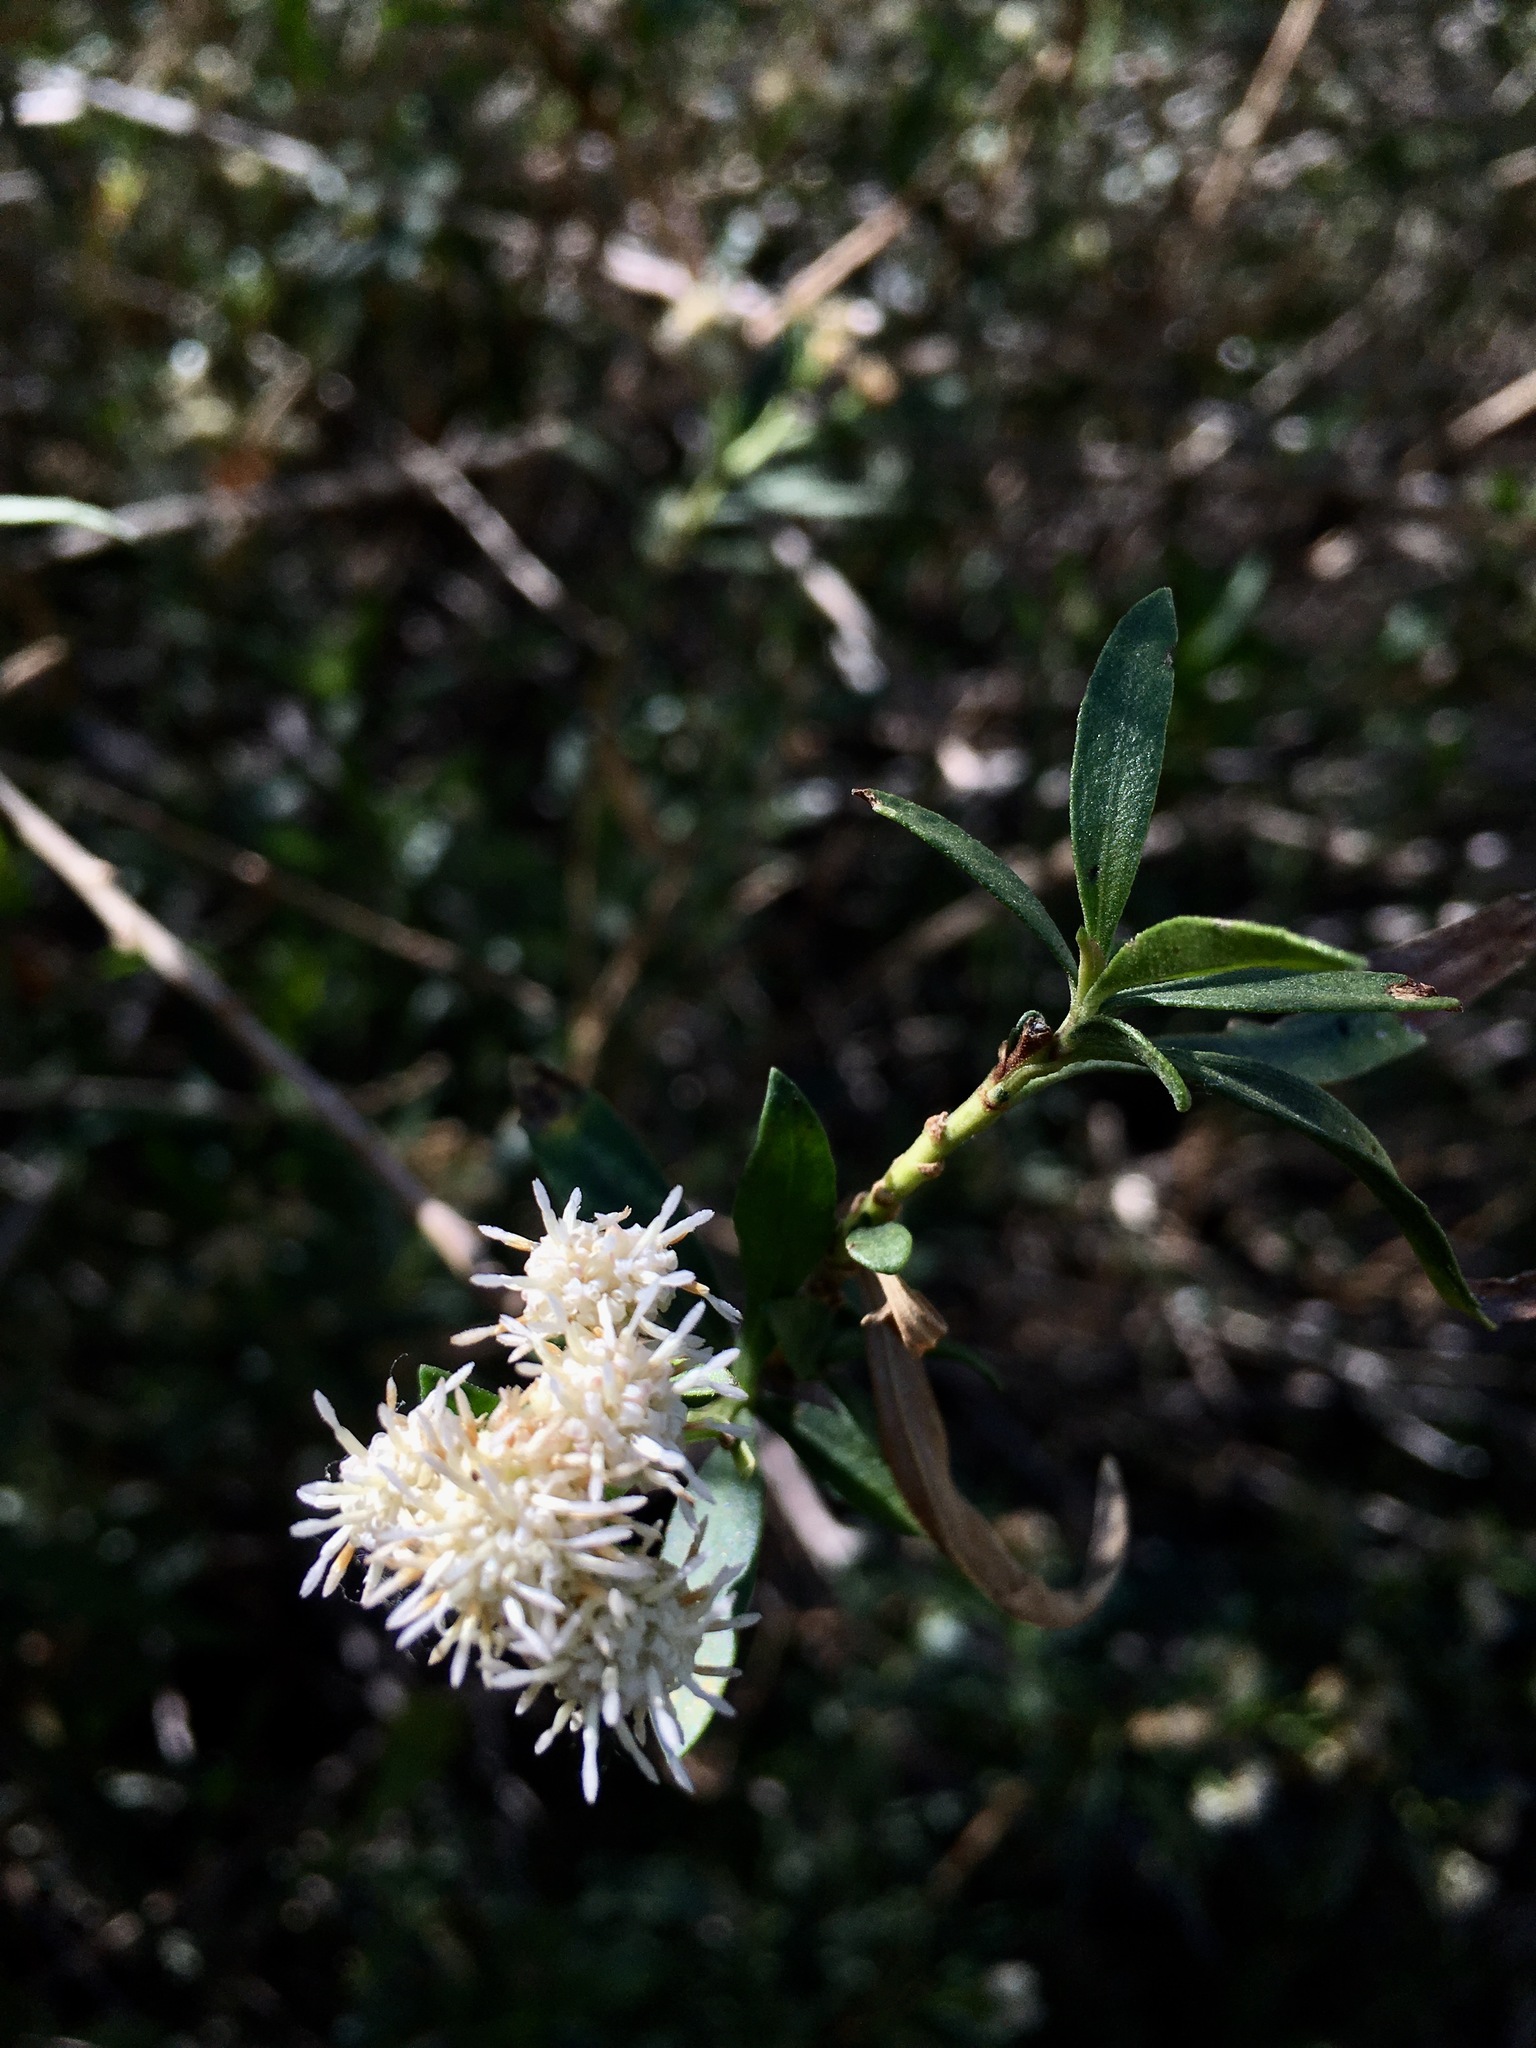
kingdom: Plantae
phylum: Tracheophyta
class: Magnoliopsida
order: Asterales
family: Asteraceae
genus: Baccharis
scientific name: Baccharis salicifolia
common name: Sticky baccharis
